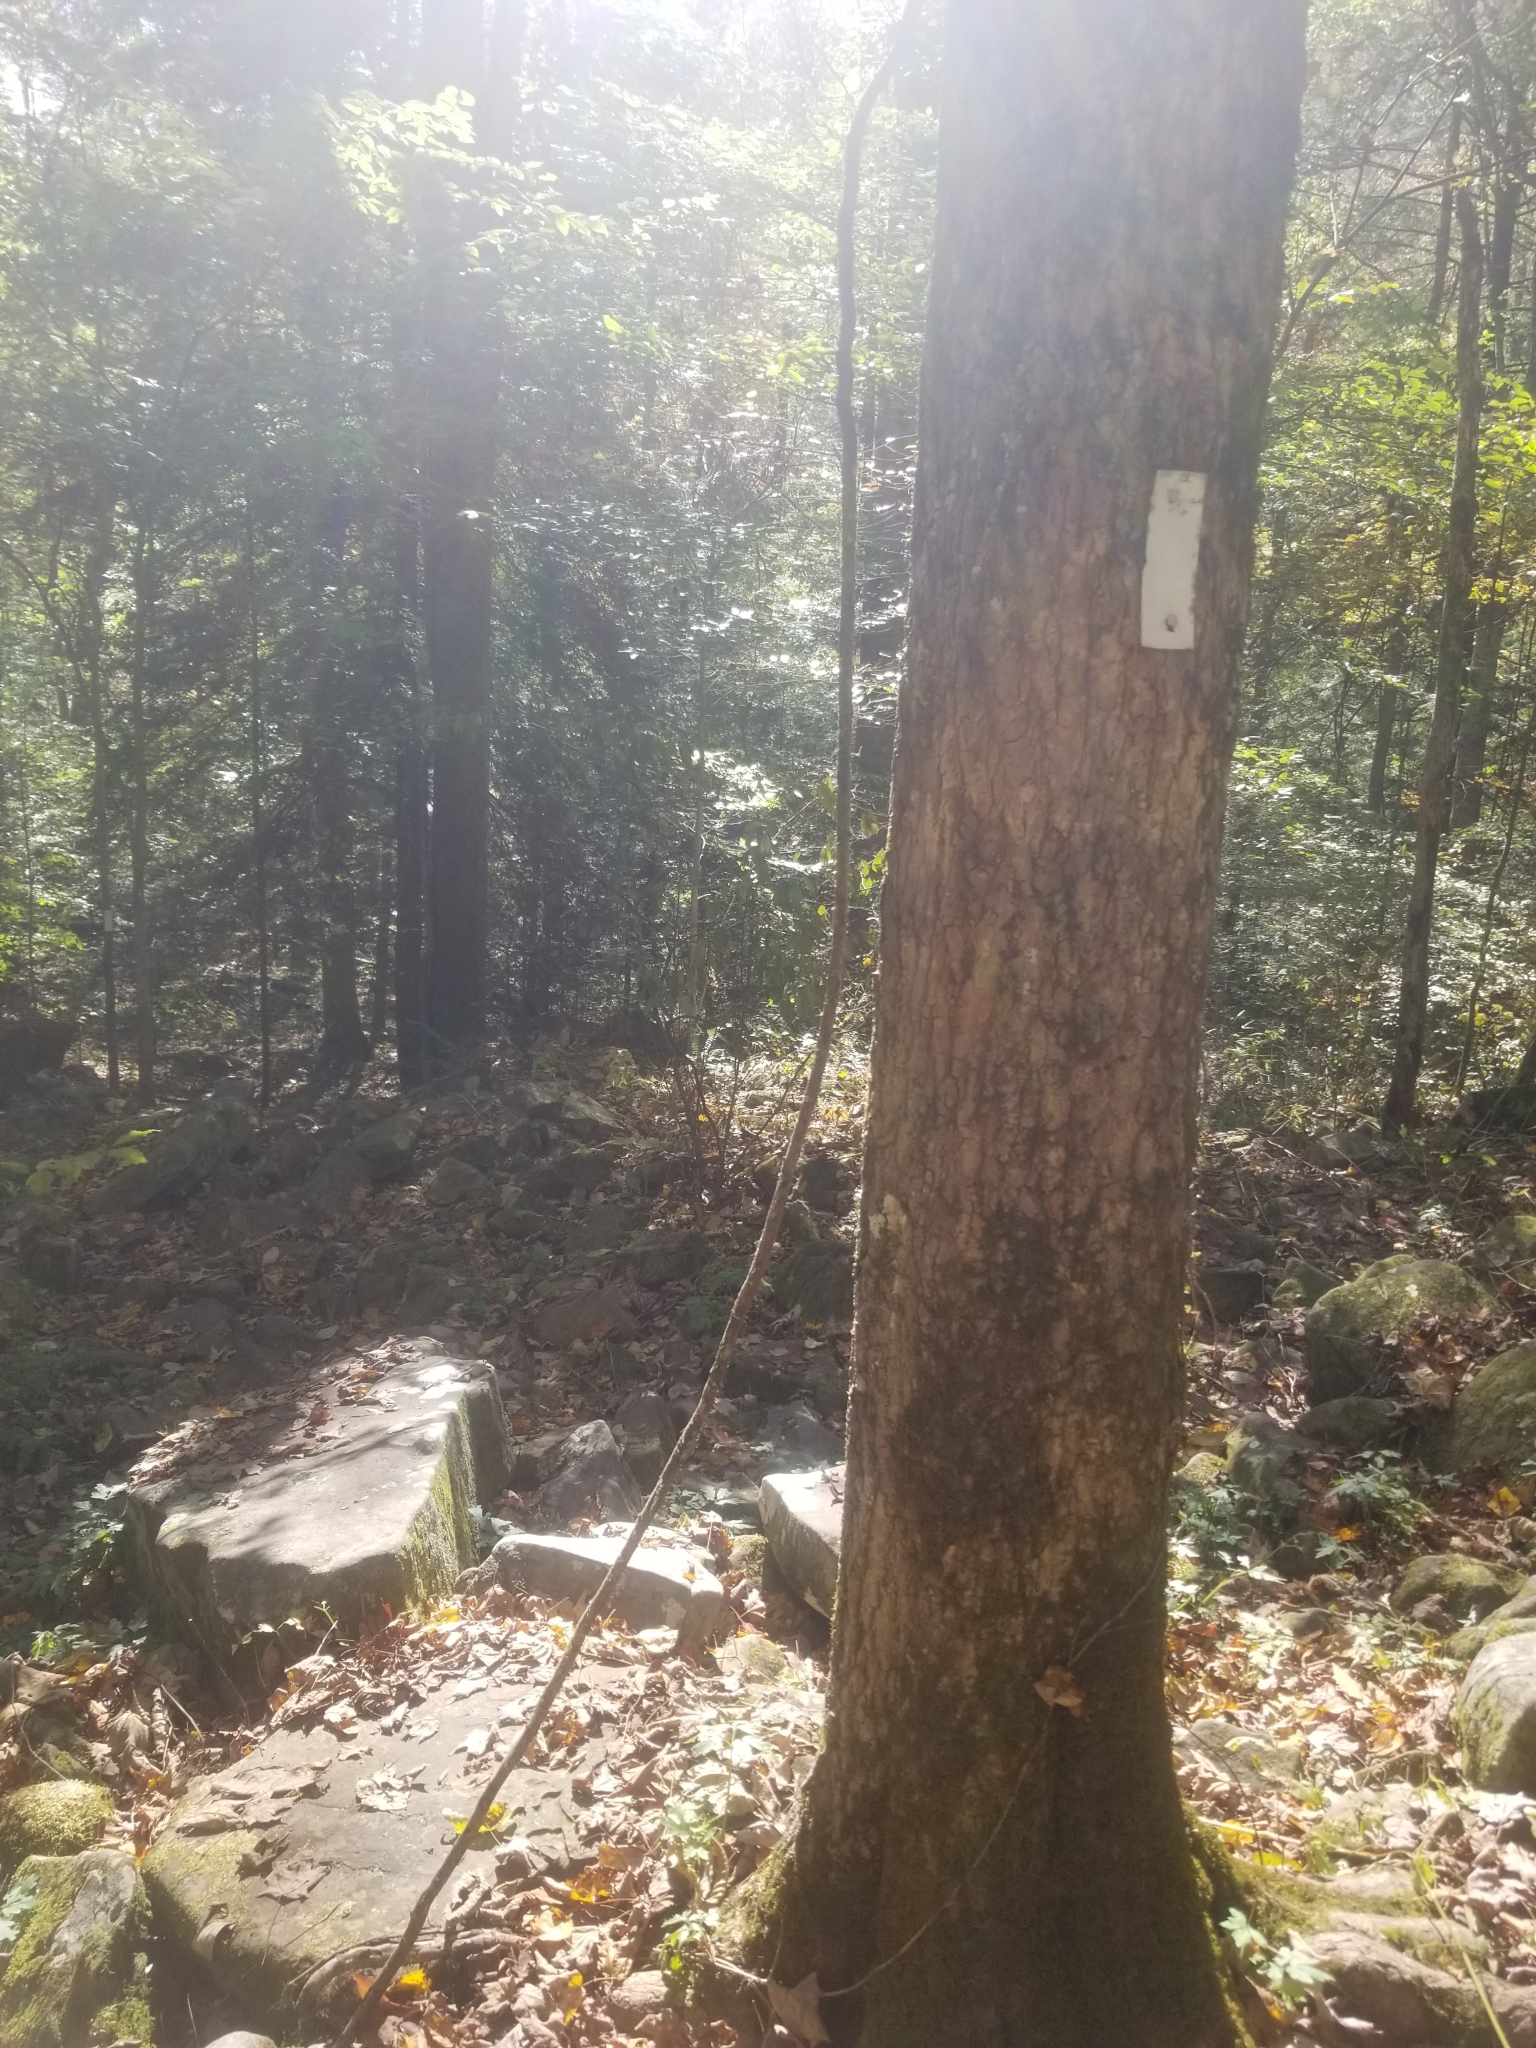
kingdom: Plantae
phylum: Tracheophyta
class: Magnoliopsida
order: Sapindales
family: Anacardiaceae
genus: Toxicodendron
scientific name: Toxicodendron radicans
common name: Poison ivy
